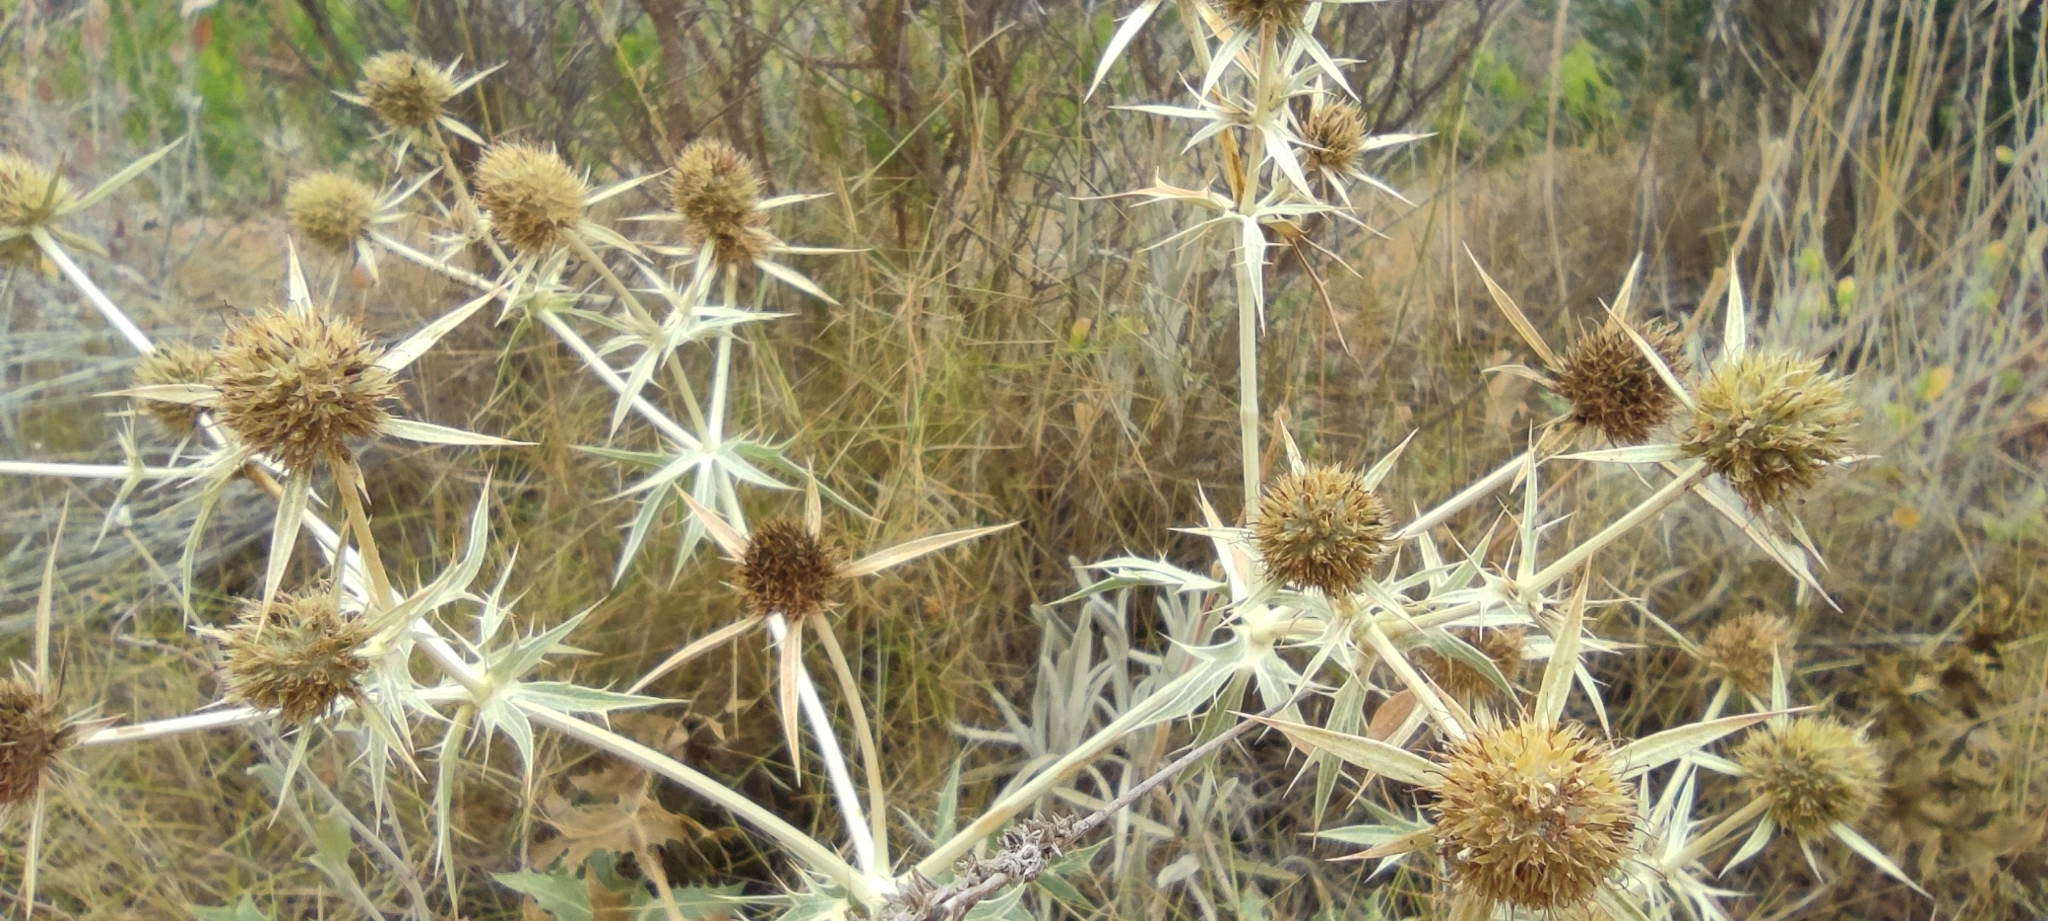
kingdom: Plantae
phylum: Tracheophyta
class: Magnoliopsida
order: Apiales
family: Apiaceae
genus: Eryngium
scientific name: Eryngium campestre
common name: Field eryngo
